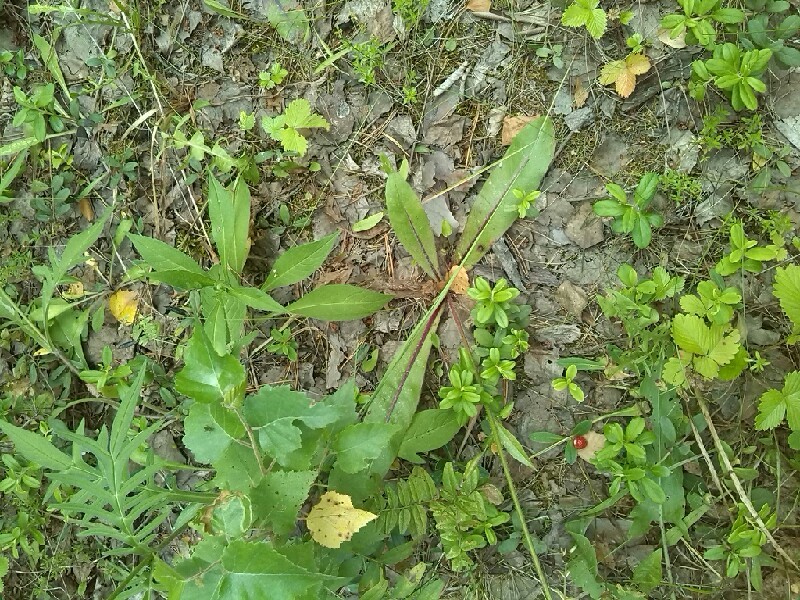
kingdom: Plantae
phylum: Tracheophyta
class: Magnoliopsida
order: Asterales
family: Asteraceae
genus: Trommsdorffia
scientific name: Trommsdorffia maculata
